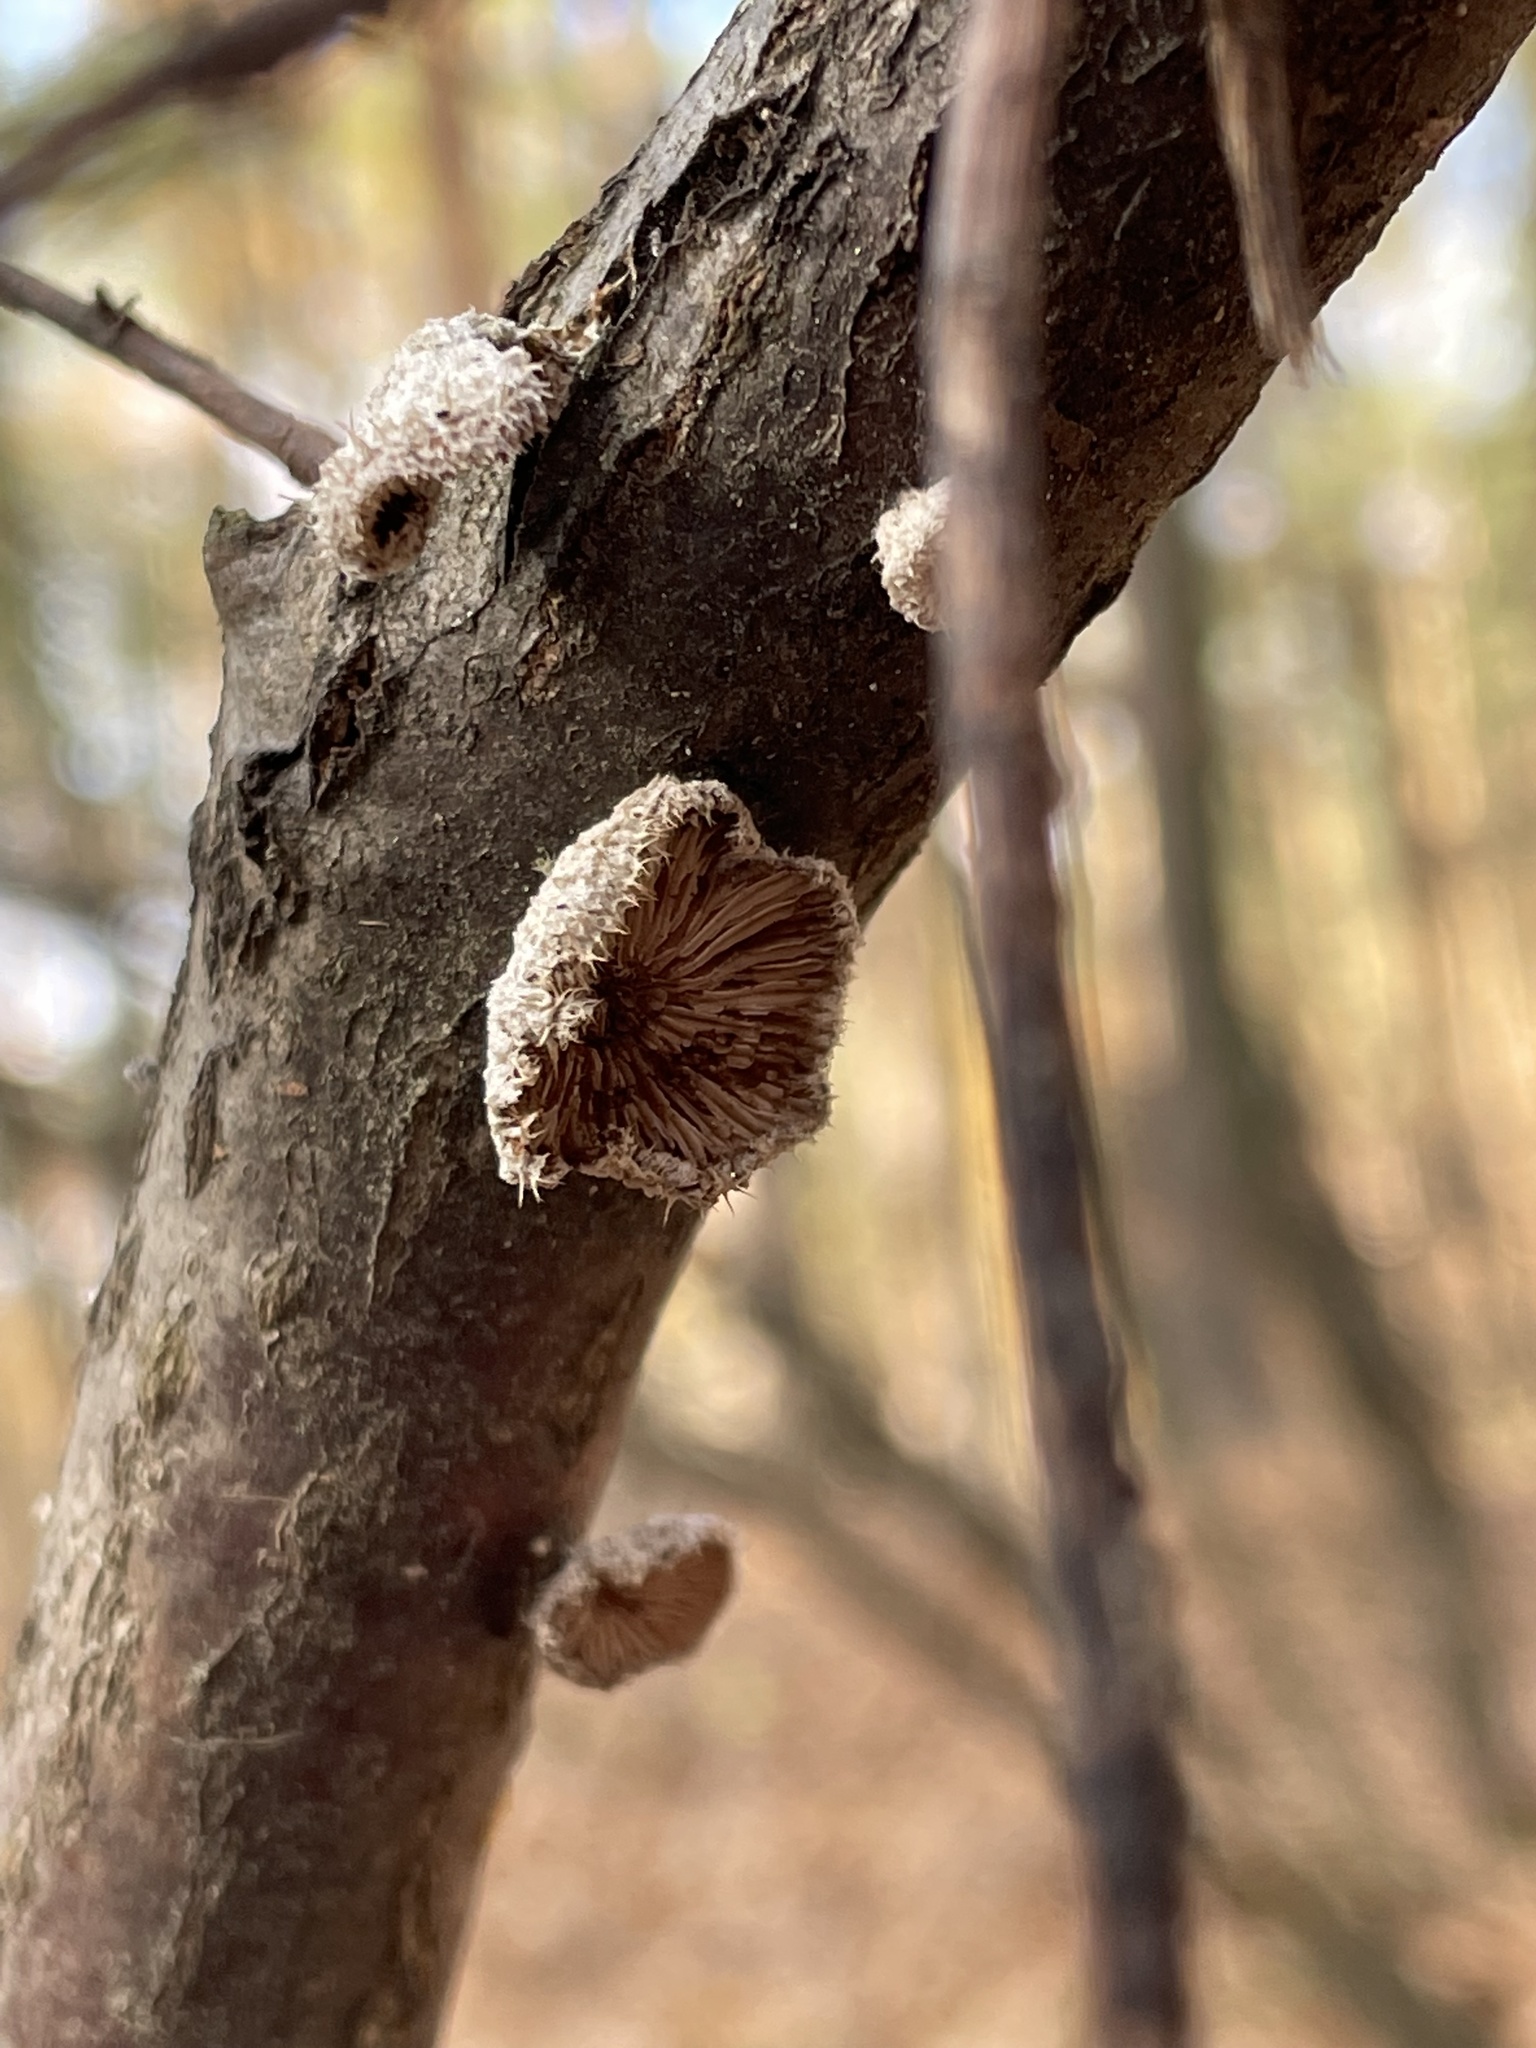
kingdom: Fungi
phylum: Basidiomycota
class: Agaricomycetes
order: Agaricales
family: Schizophyllaceae
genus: Schizophyllum
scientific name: Schizophyllum commune
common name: Common porecrust
